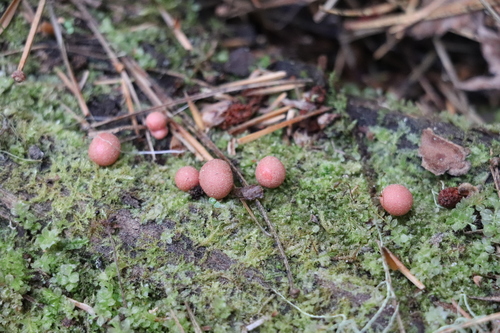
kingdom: Protozoa
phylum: Mycetozoa
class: Myxomycetes
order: Cribrariales
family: Tubiferaceae
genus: Lycogala
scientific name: Lycogala epidendrum
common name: Wolf's milk
